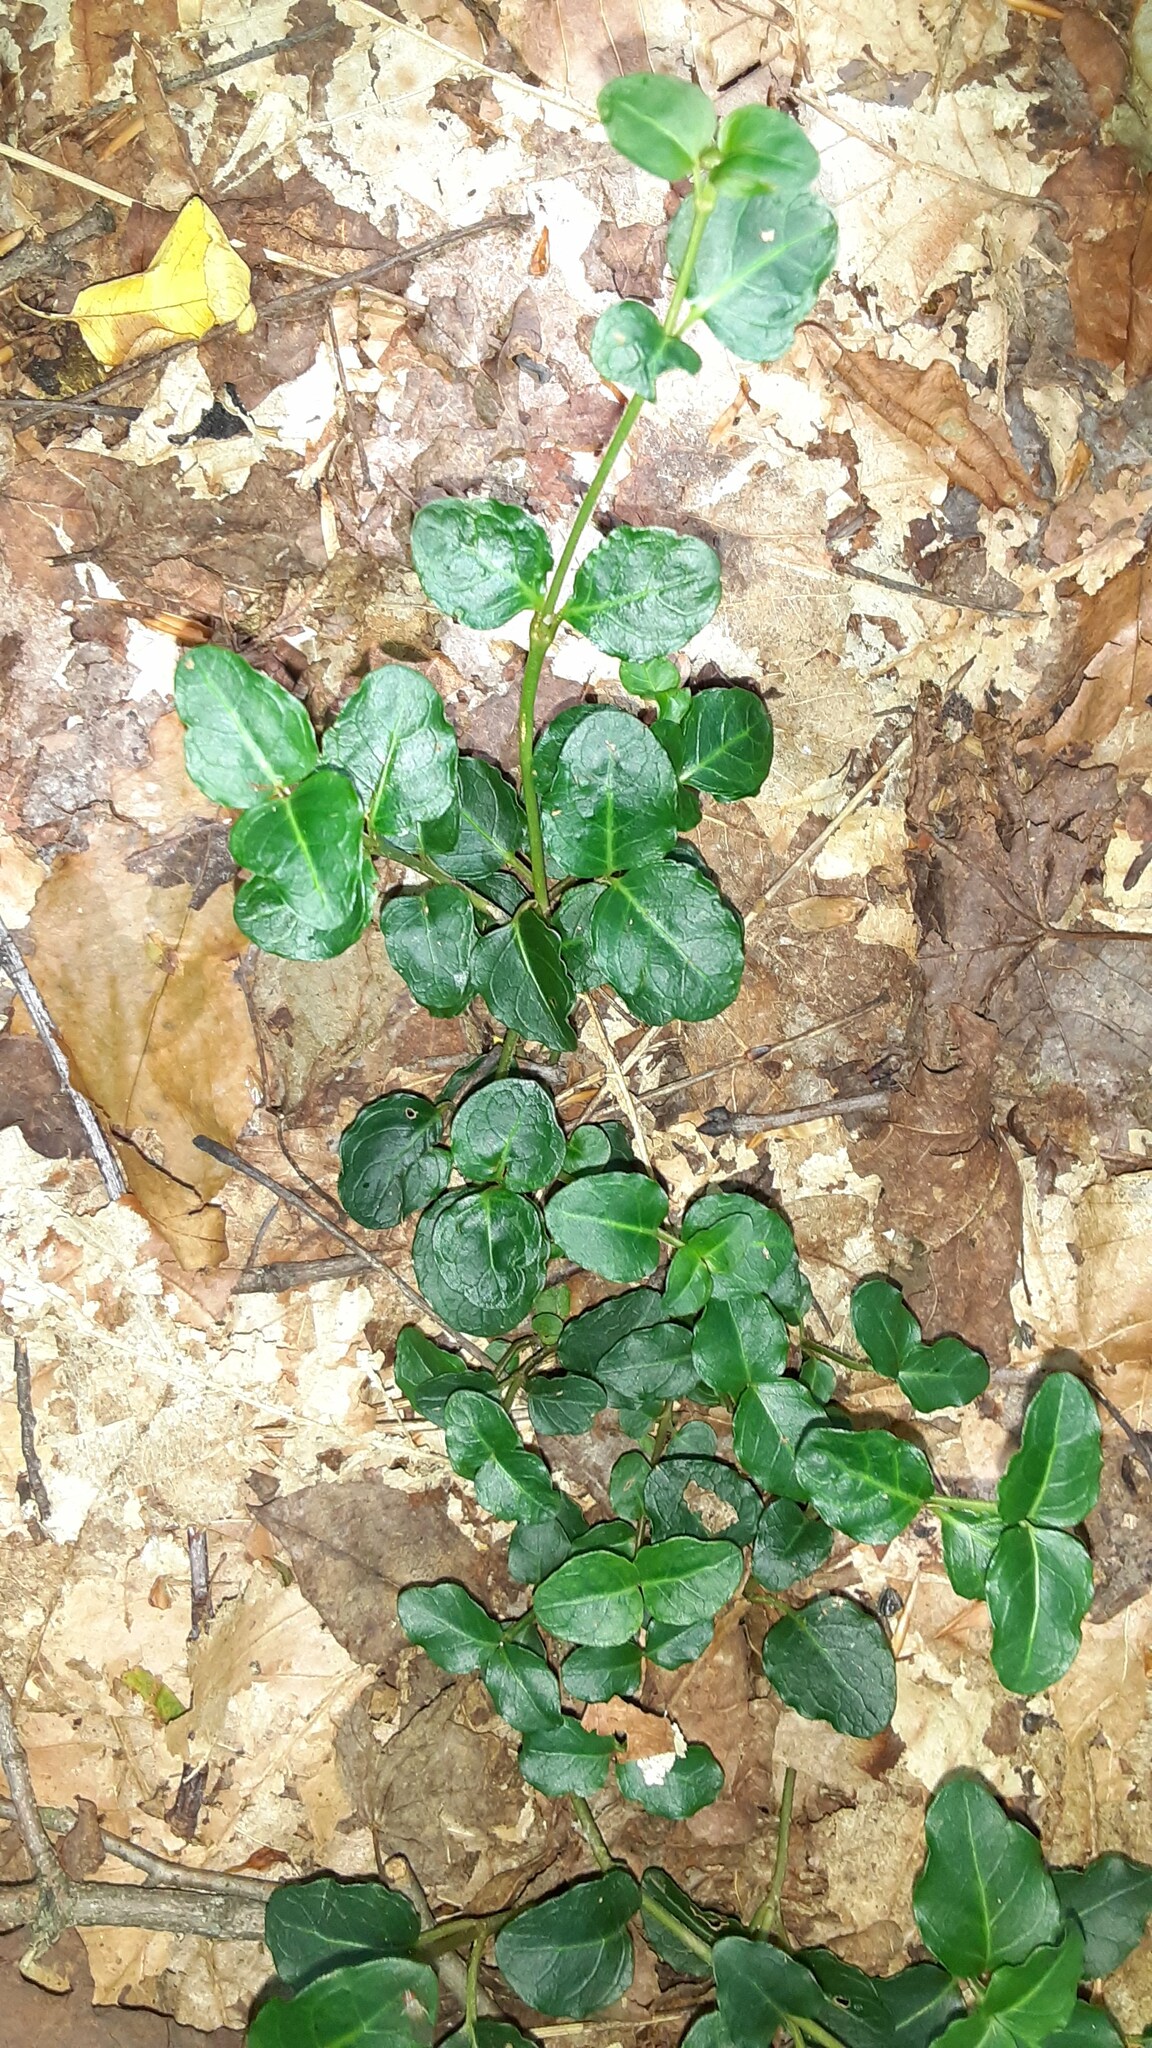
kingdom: Plantae
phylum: Tracheophyta
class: Magnoliopsida
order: Gentianales
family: Rubiaceae
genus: Mitchella
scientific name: Mitchella repens
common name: Partridge-berry
